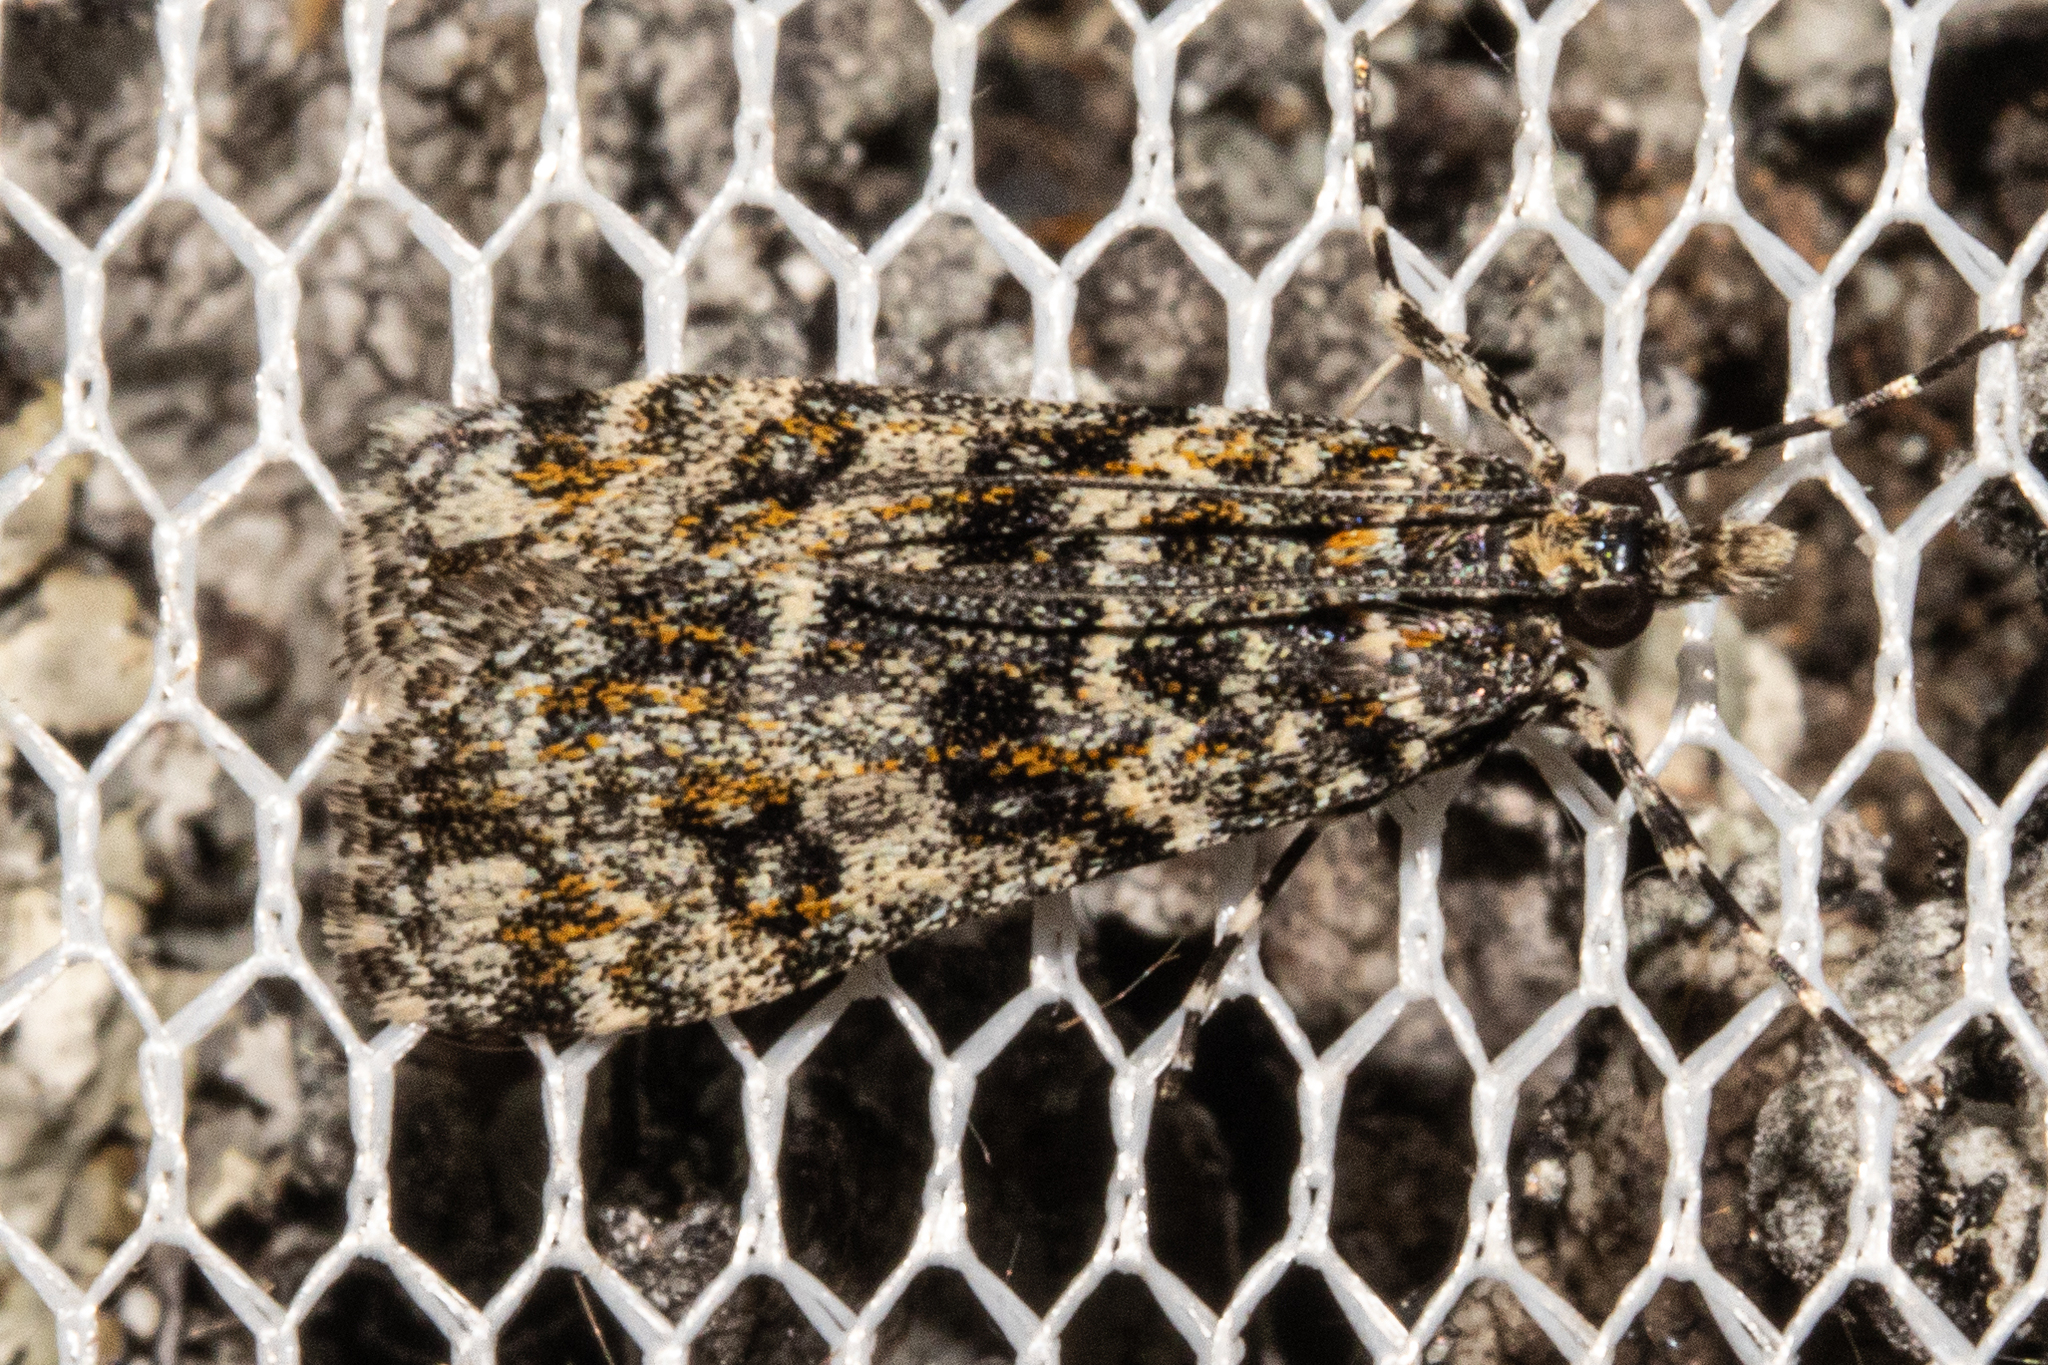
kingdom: Animalia
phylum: Arthropoda
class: Insecta
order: Lepidoptera
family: Crambidae
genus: Eudonia
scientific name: Eudonia
